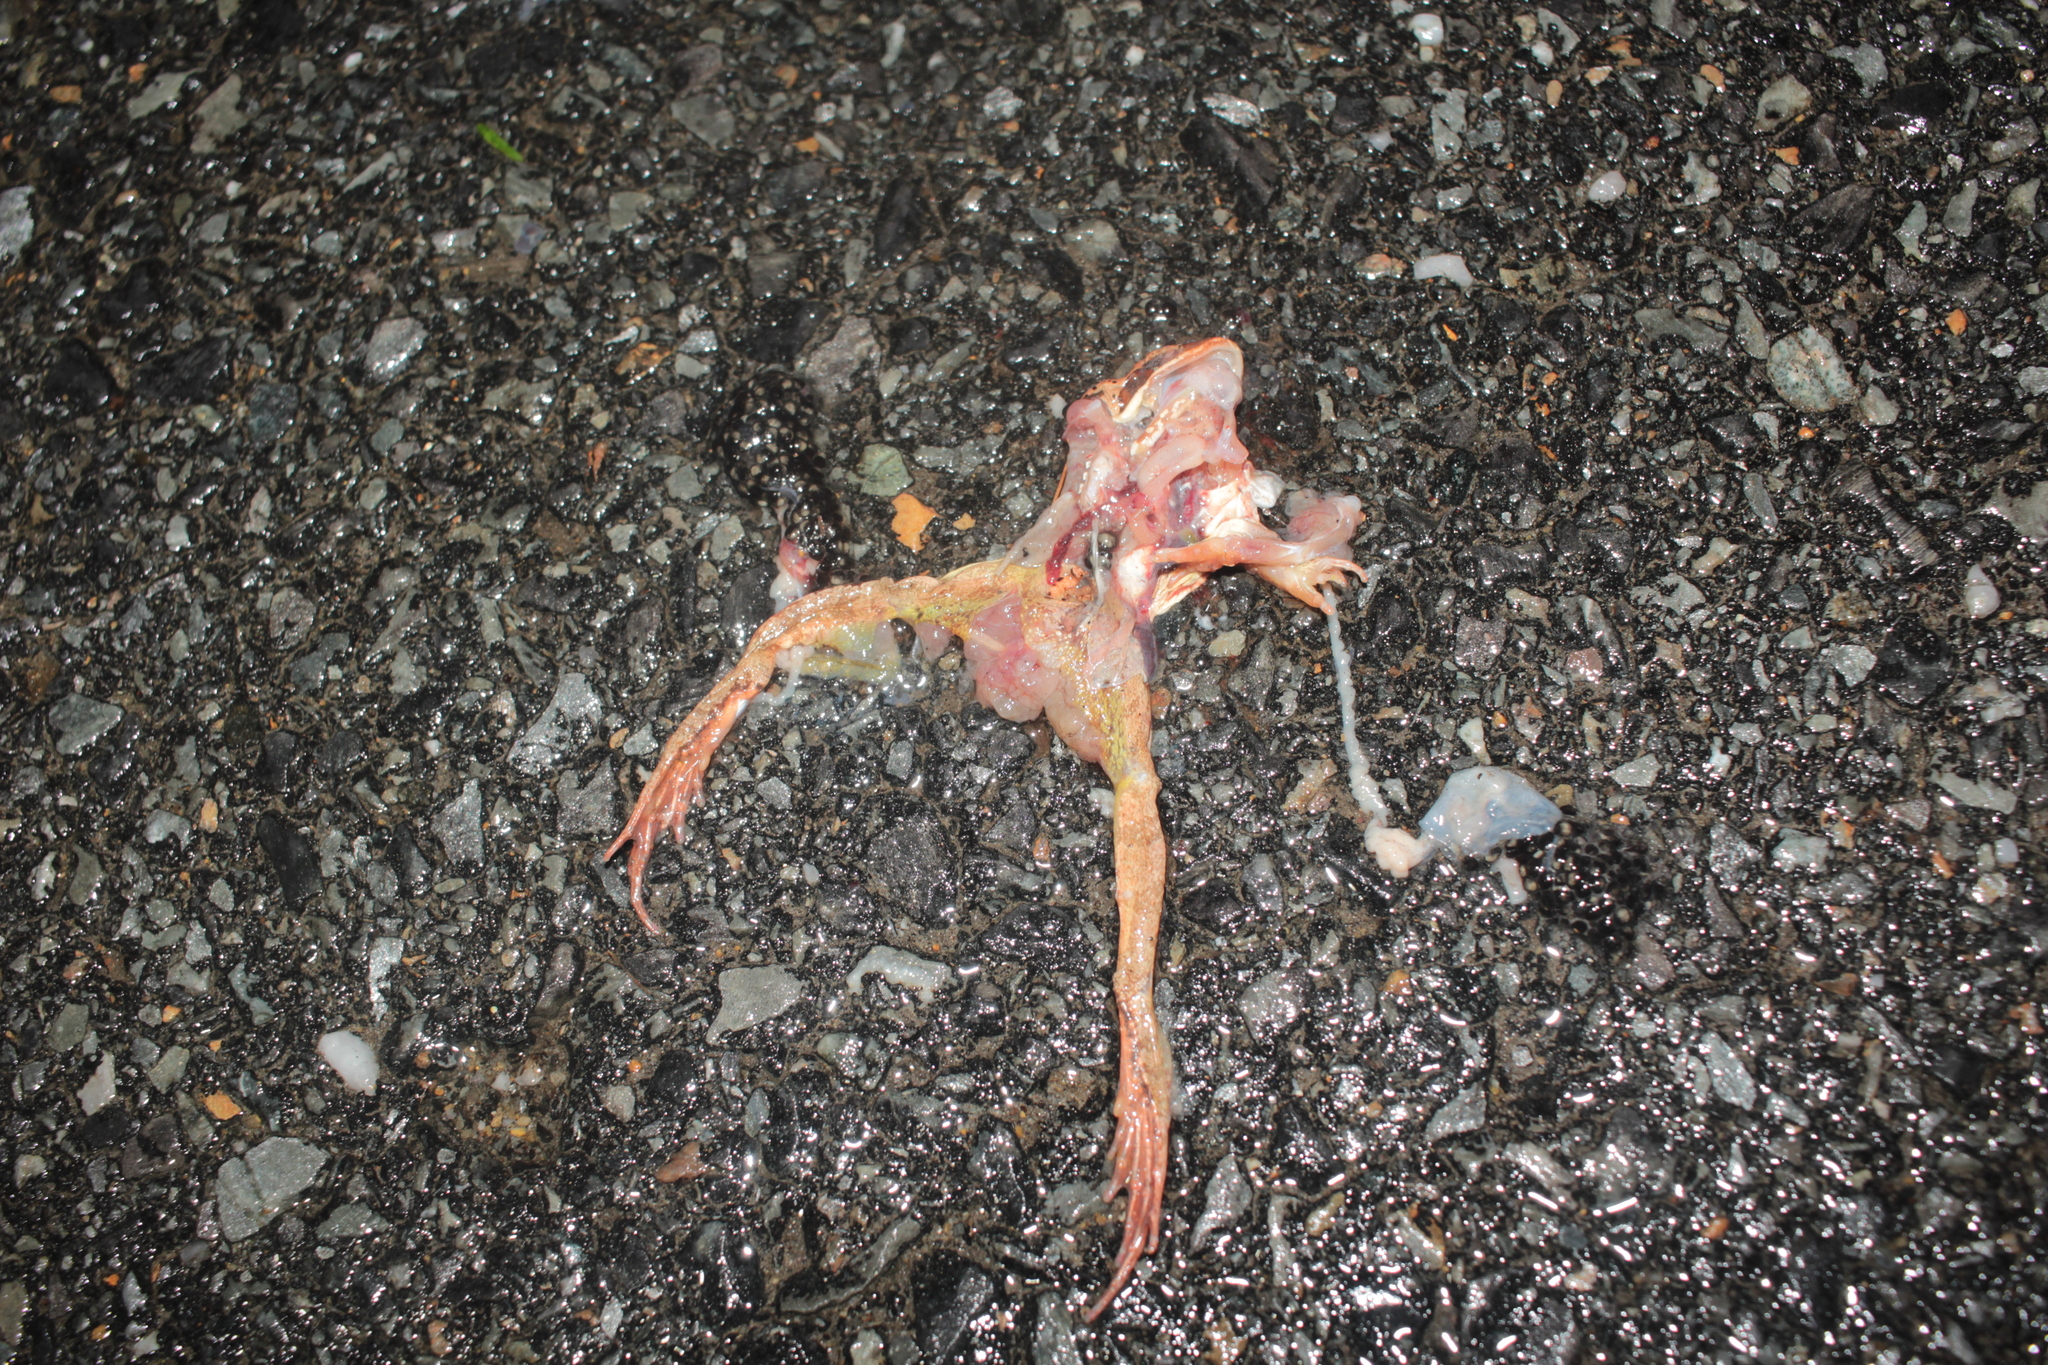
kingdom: Animalia
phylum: Chordata
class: Amphibia
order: Anura
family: Ranidae
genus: Lithobates
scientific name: Lithobates sylvaticus
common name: Wood frog
